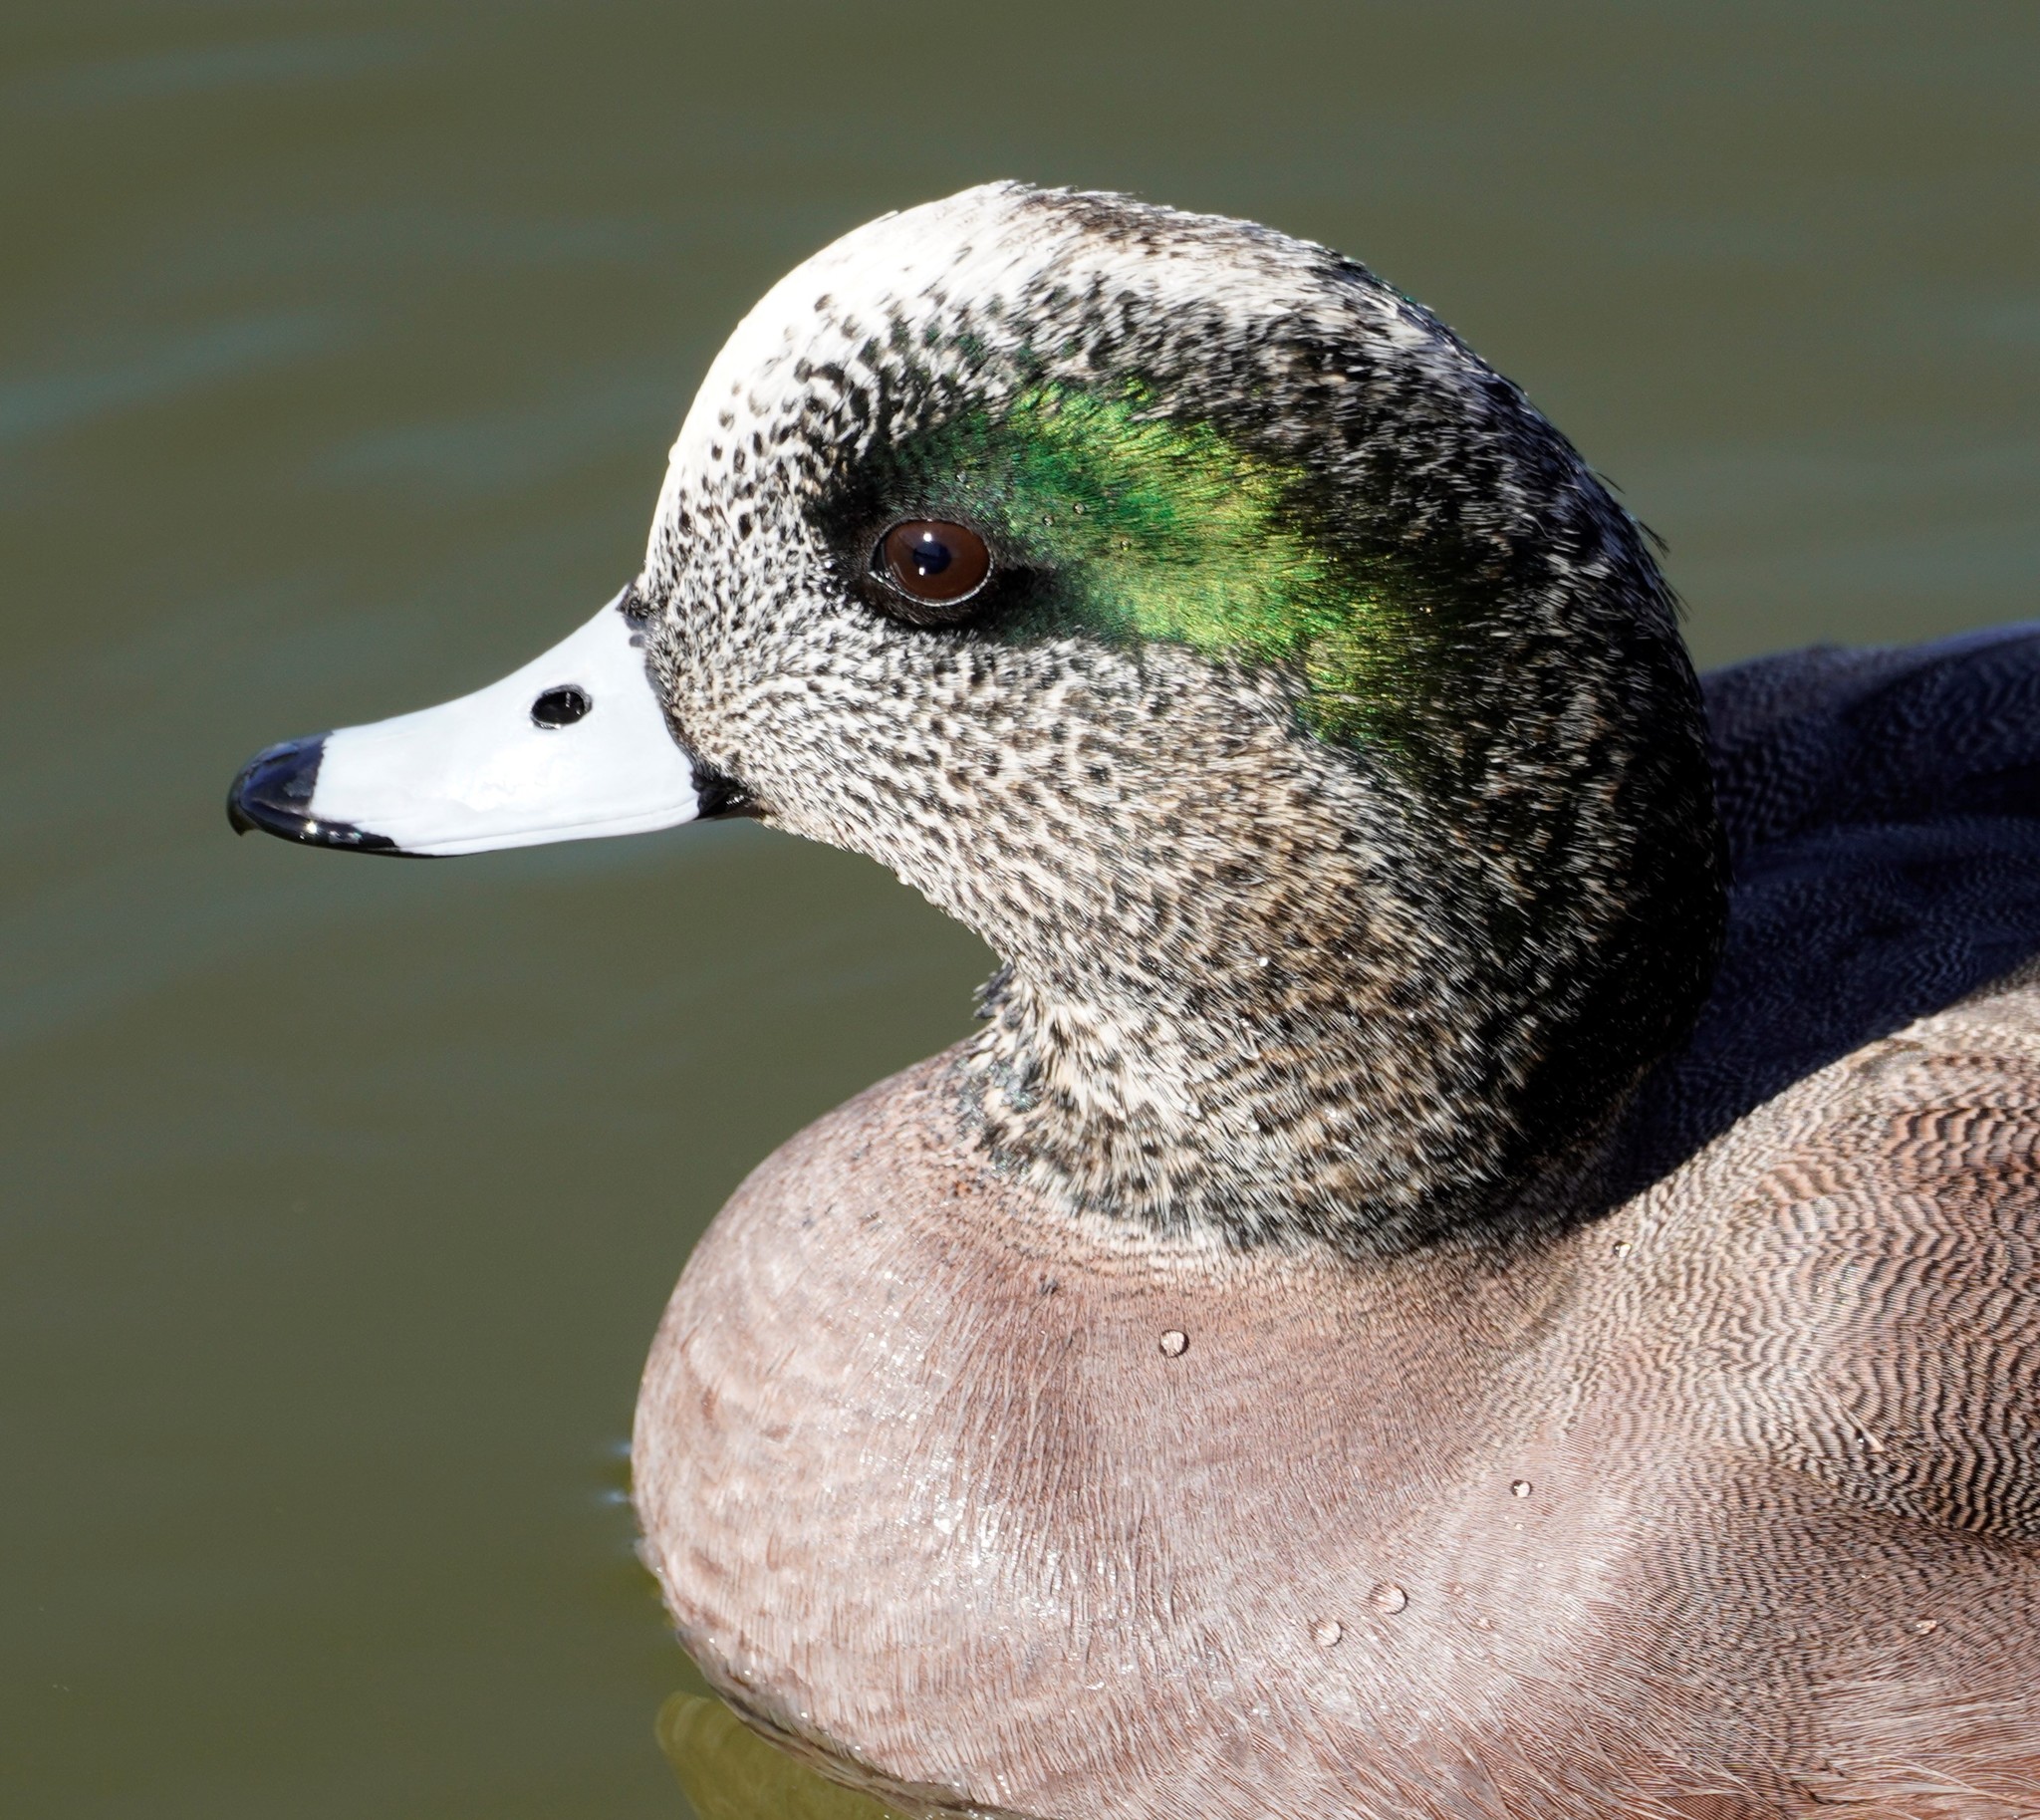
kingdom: Animalia
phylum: Chordata
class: Aves
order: Anseriformes
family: Anatidae
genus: Mareca
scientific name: Mareca americana
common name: American wigeon
